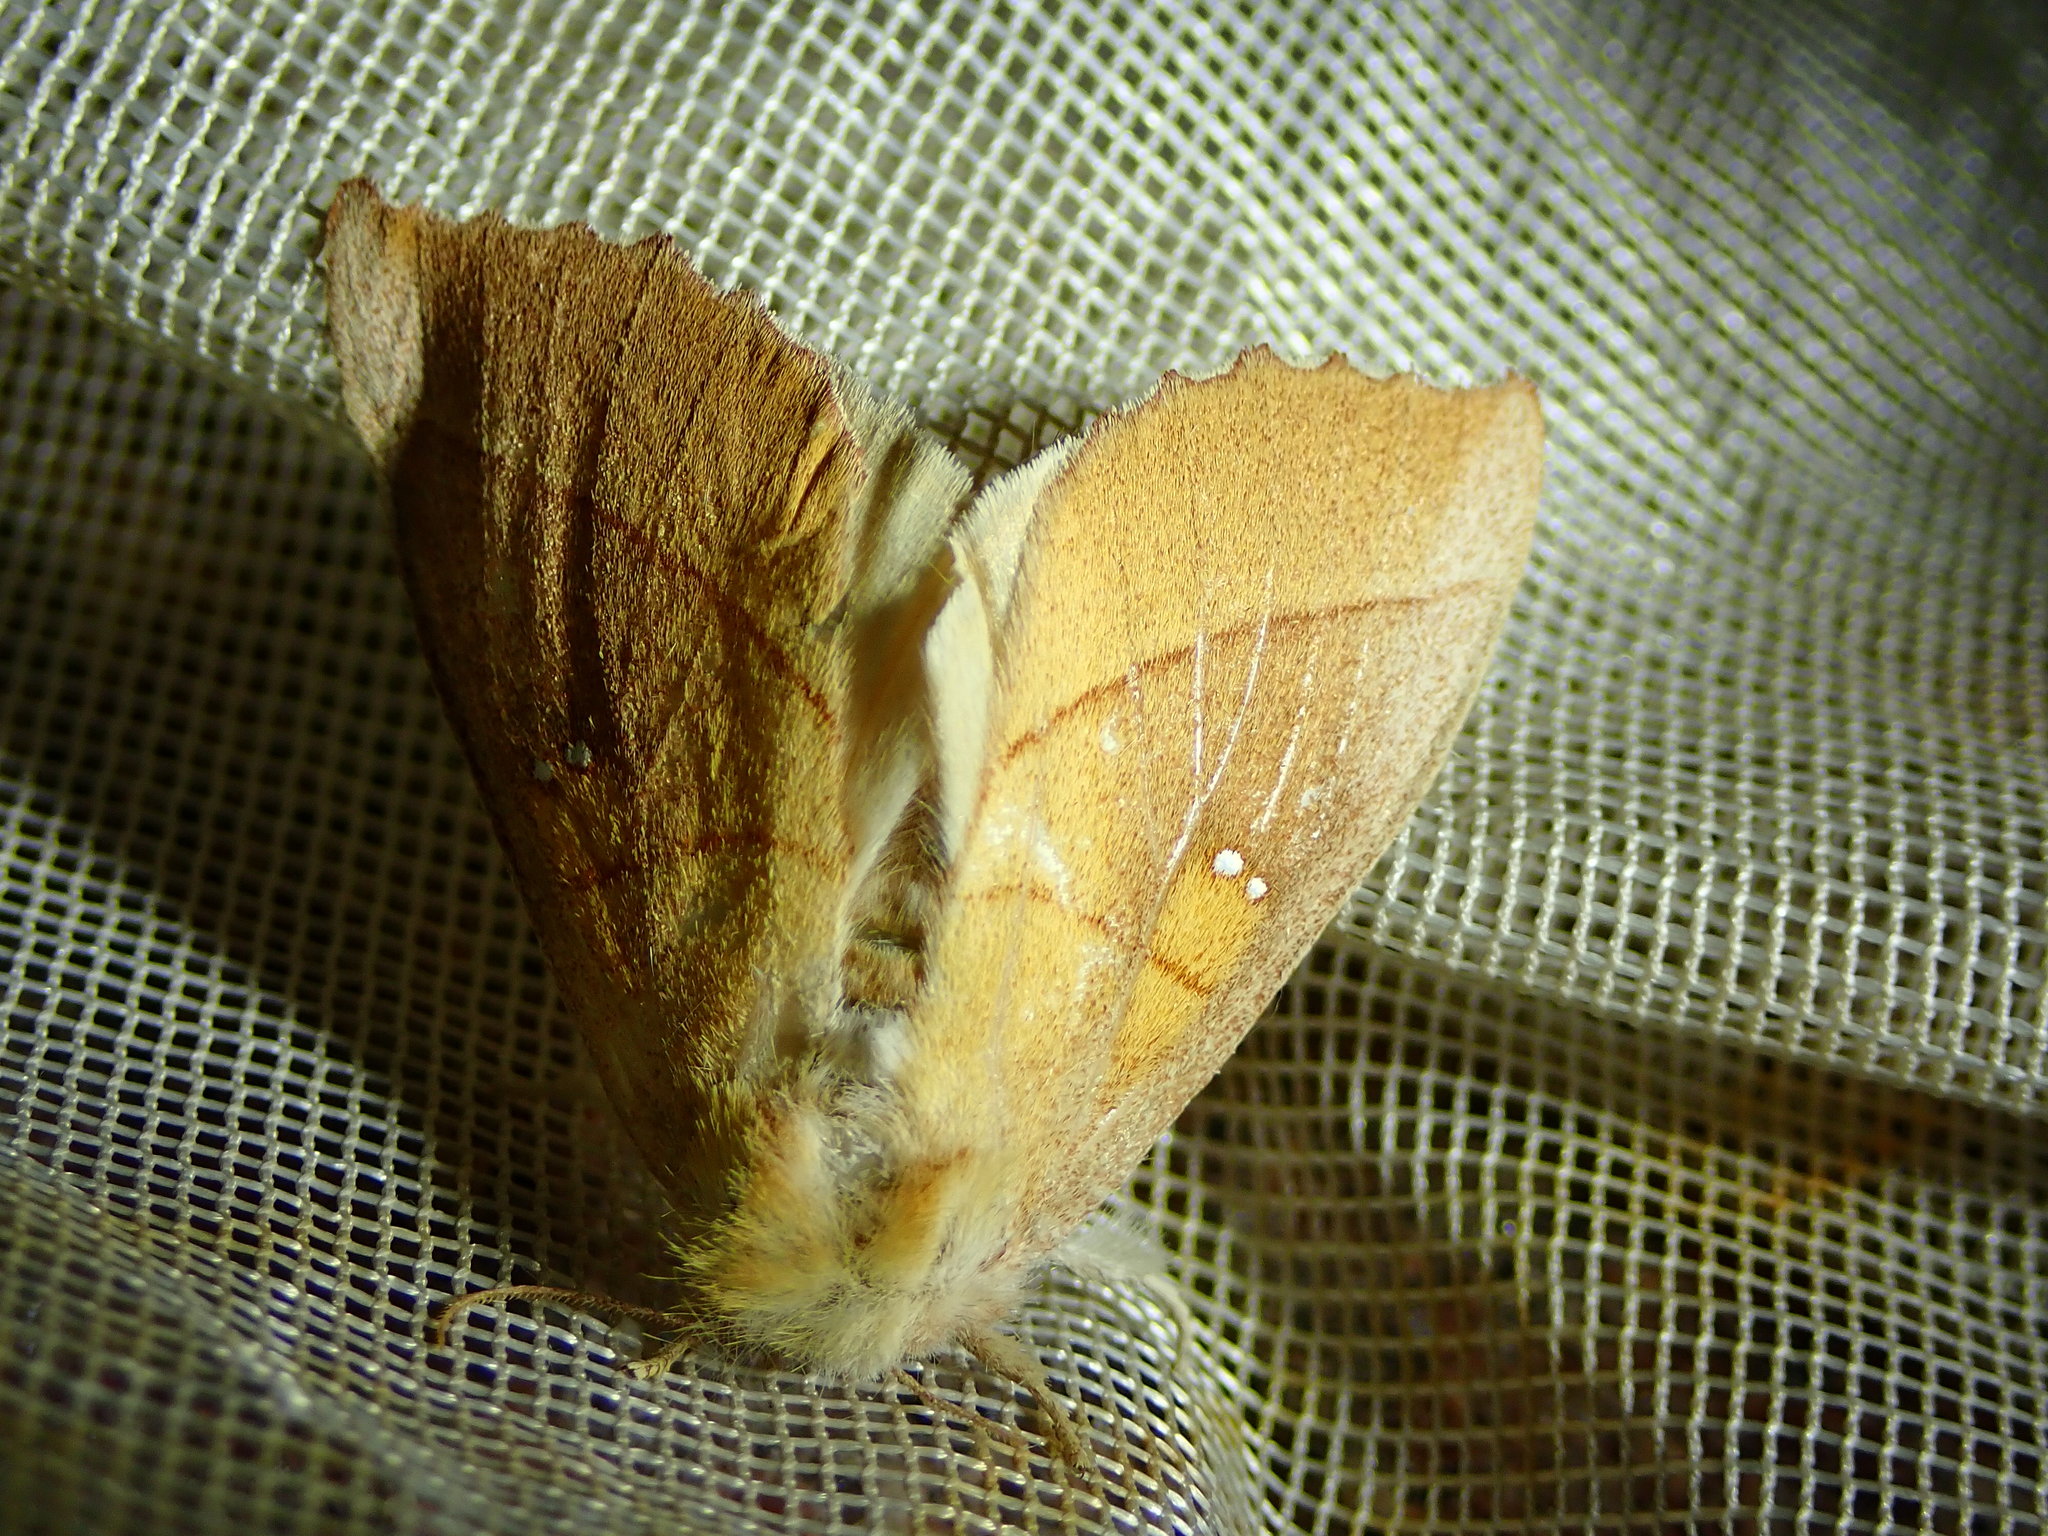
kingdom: Animalia
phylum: Arthropoda
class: Insecta
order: Lepidoptera
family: Notodontidae
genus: Nadata
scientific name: Nadata gibbosa
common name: White-dotted prominent
